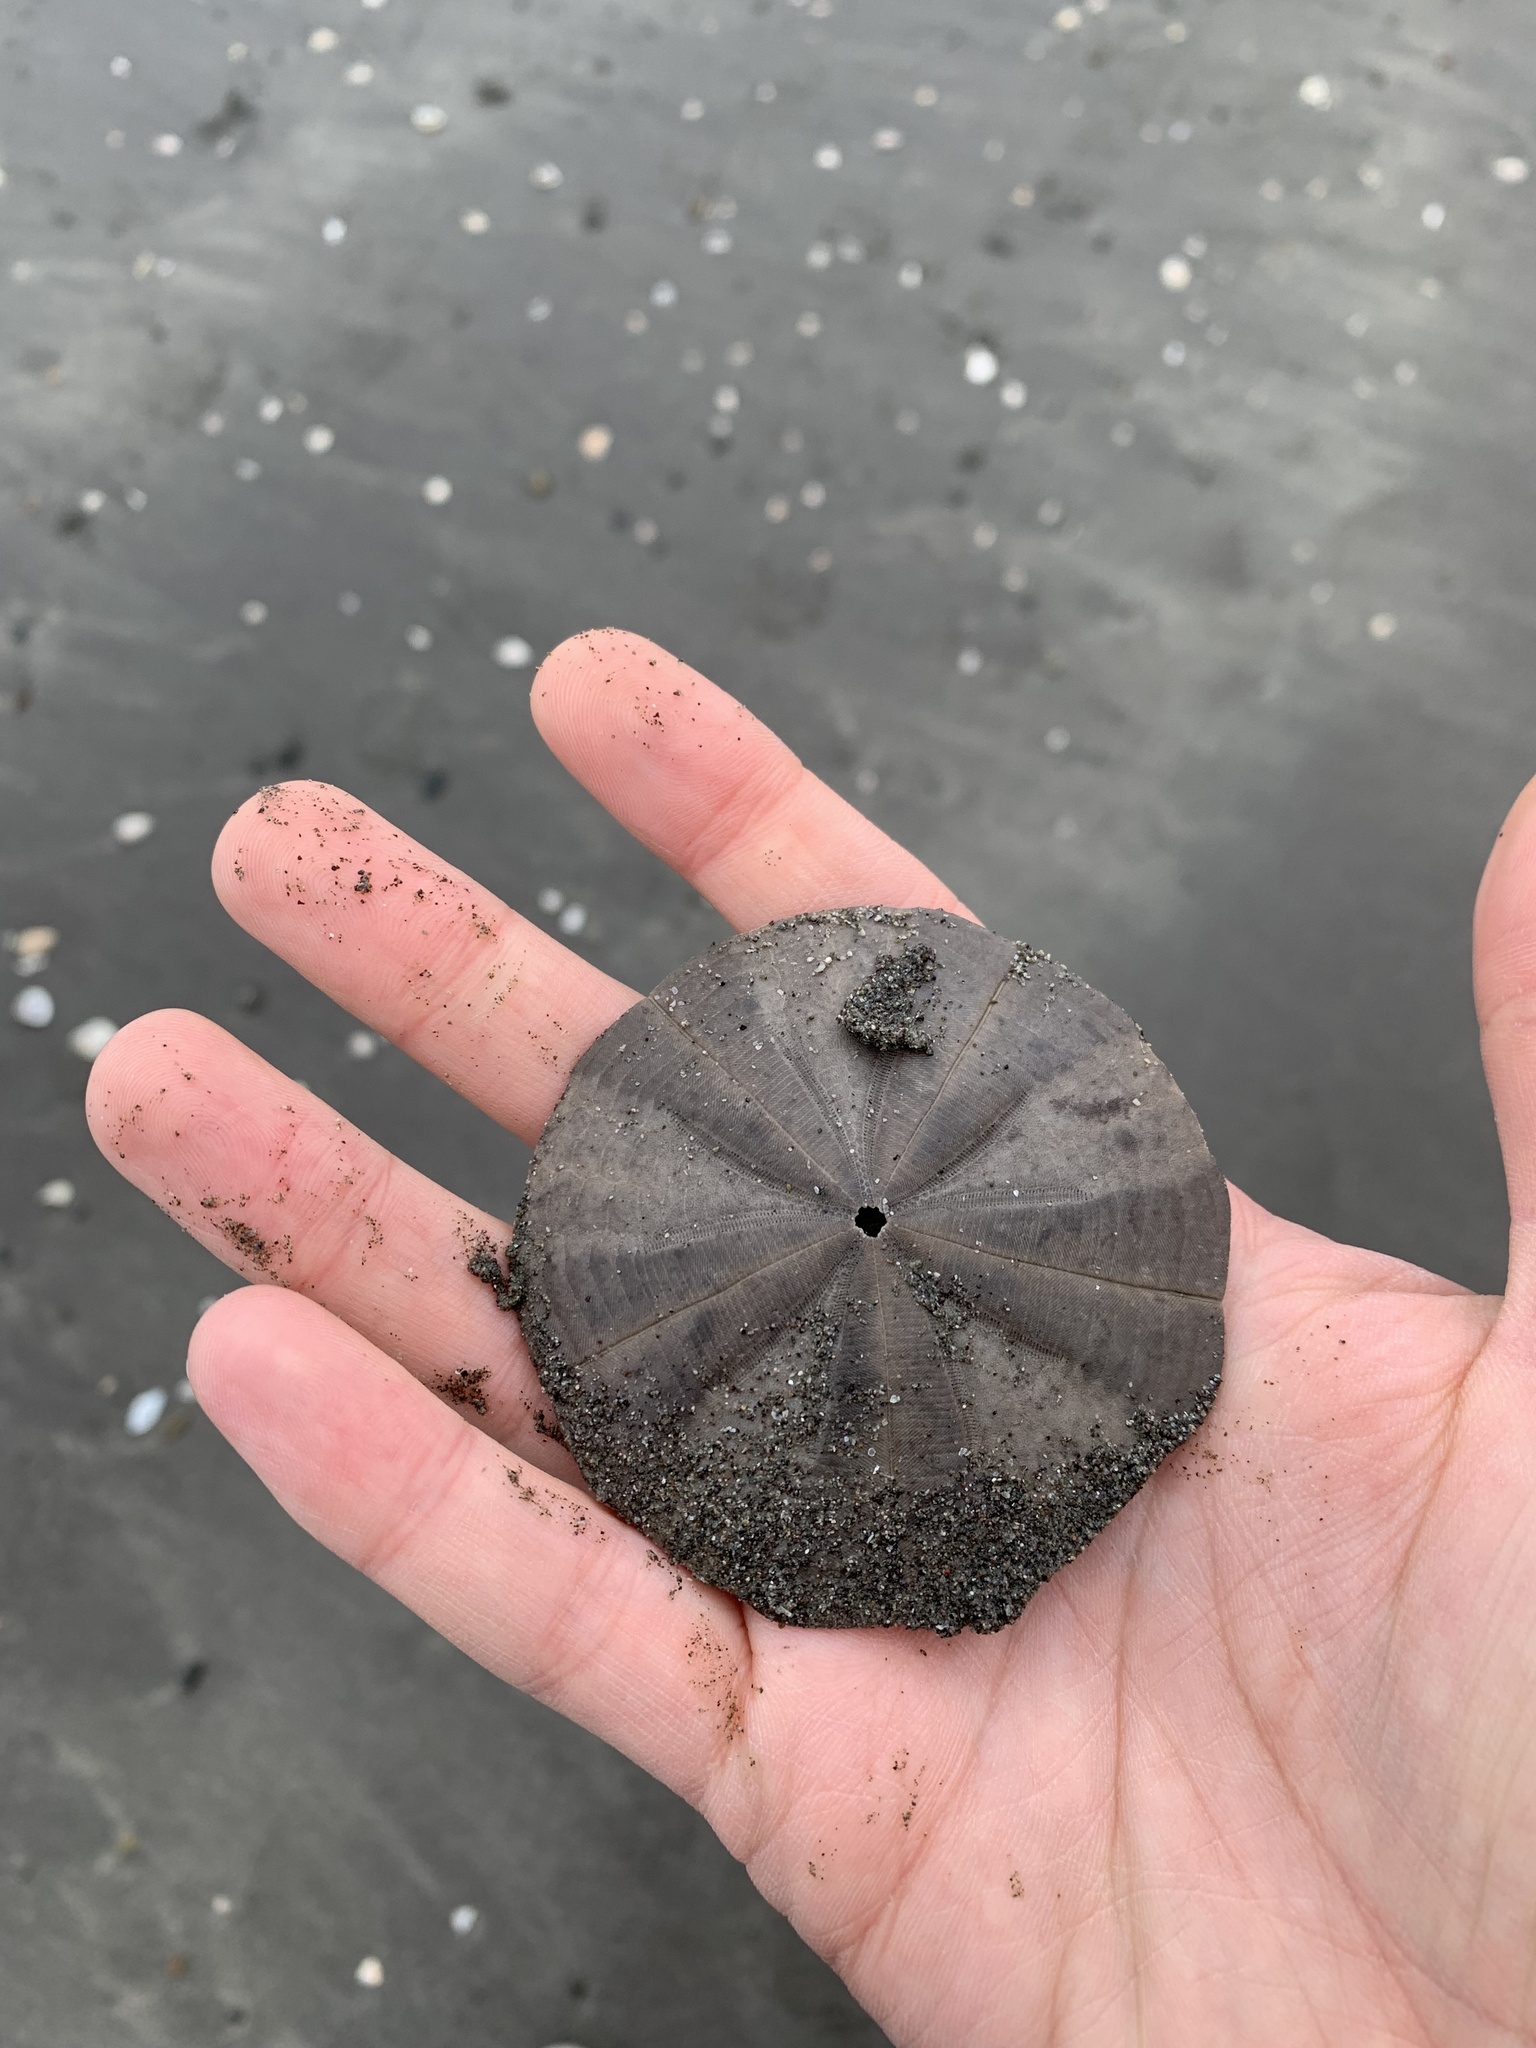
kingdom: Animalia
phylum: Echinodermata
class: Echinoidea
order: Clypeasteroida
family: Clypeasteridae
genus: Fellaster
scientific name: Fellaster zelandiae
